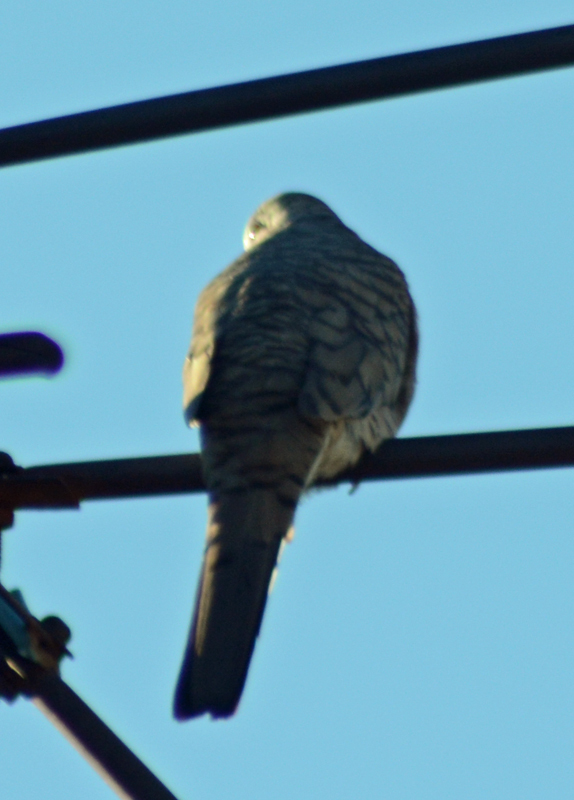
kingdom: Animalia
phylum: Chordata
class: Aves
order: Columbiformes
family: Columbidae
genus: Columbina
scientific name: Columbina inca
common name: Inca dove
